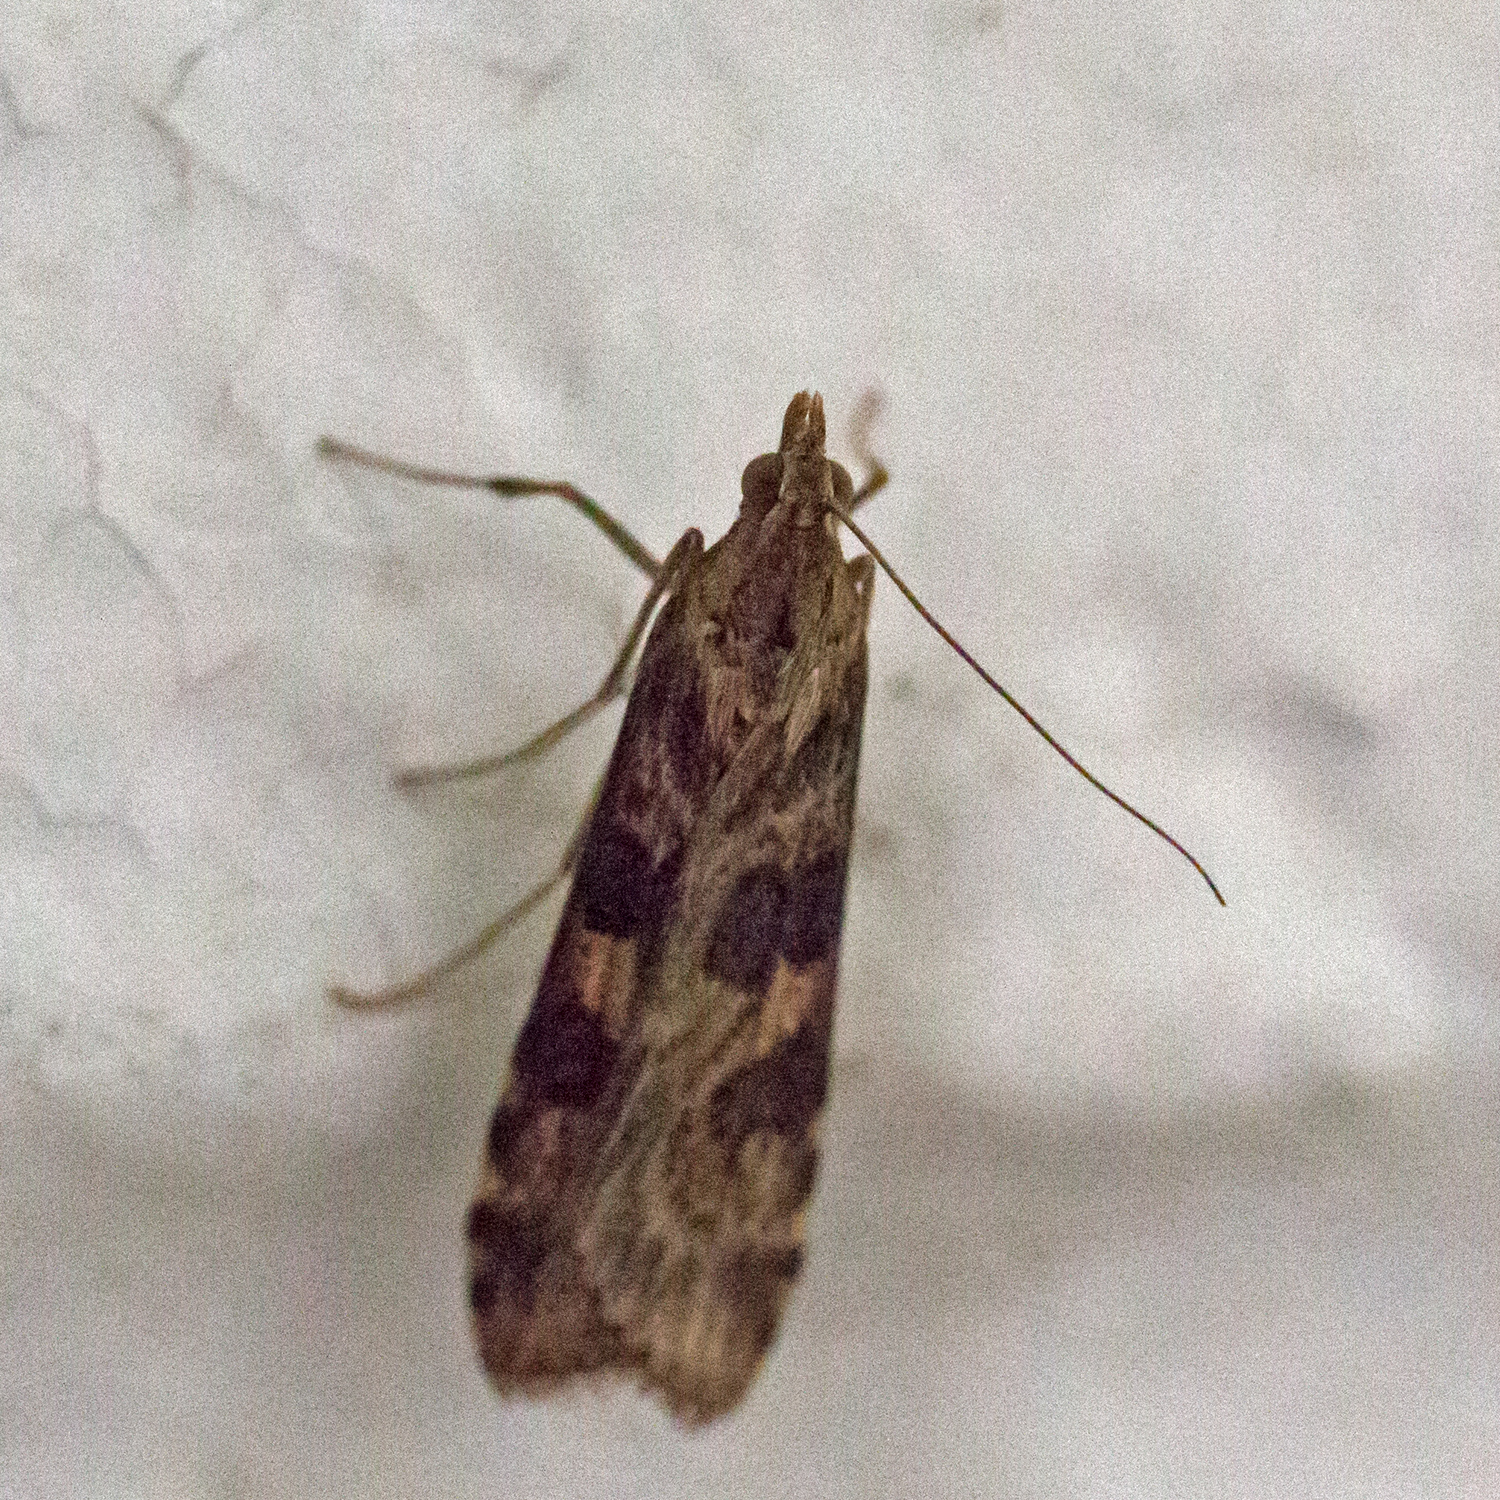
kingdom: Animalia
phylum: Arthropoda
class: Insecta
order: Lepidoptera
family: Crambidae
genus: Nomophila
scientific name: Nomophila nearctica
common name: American rush veneer
